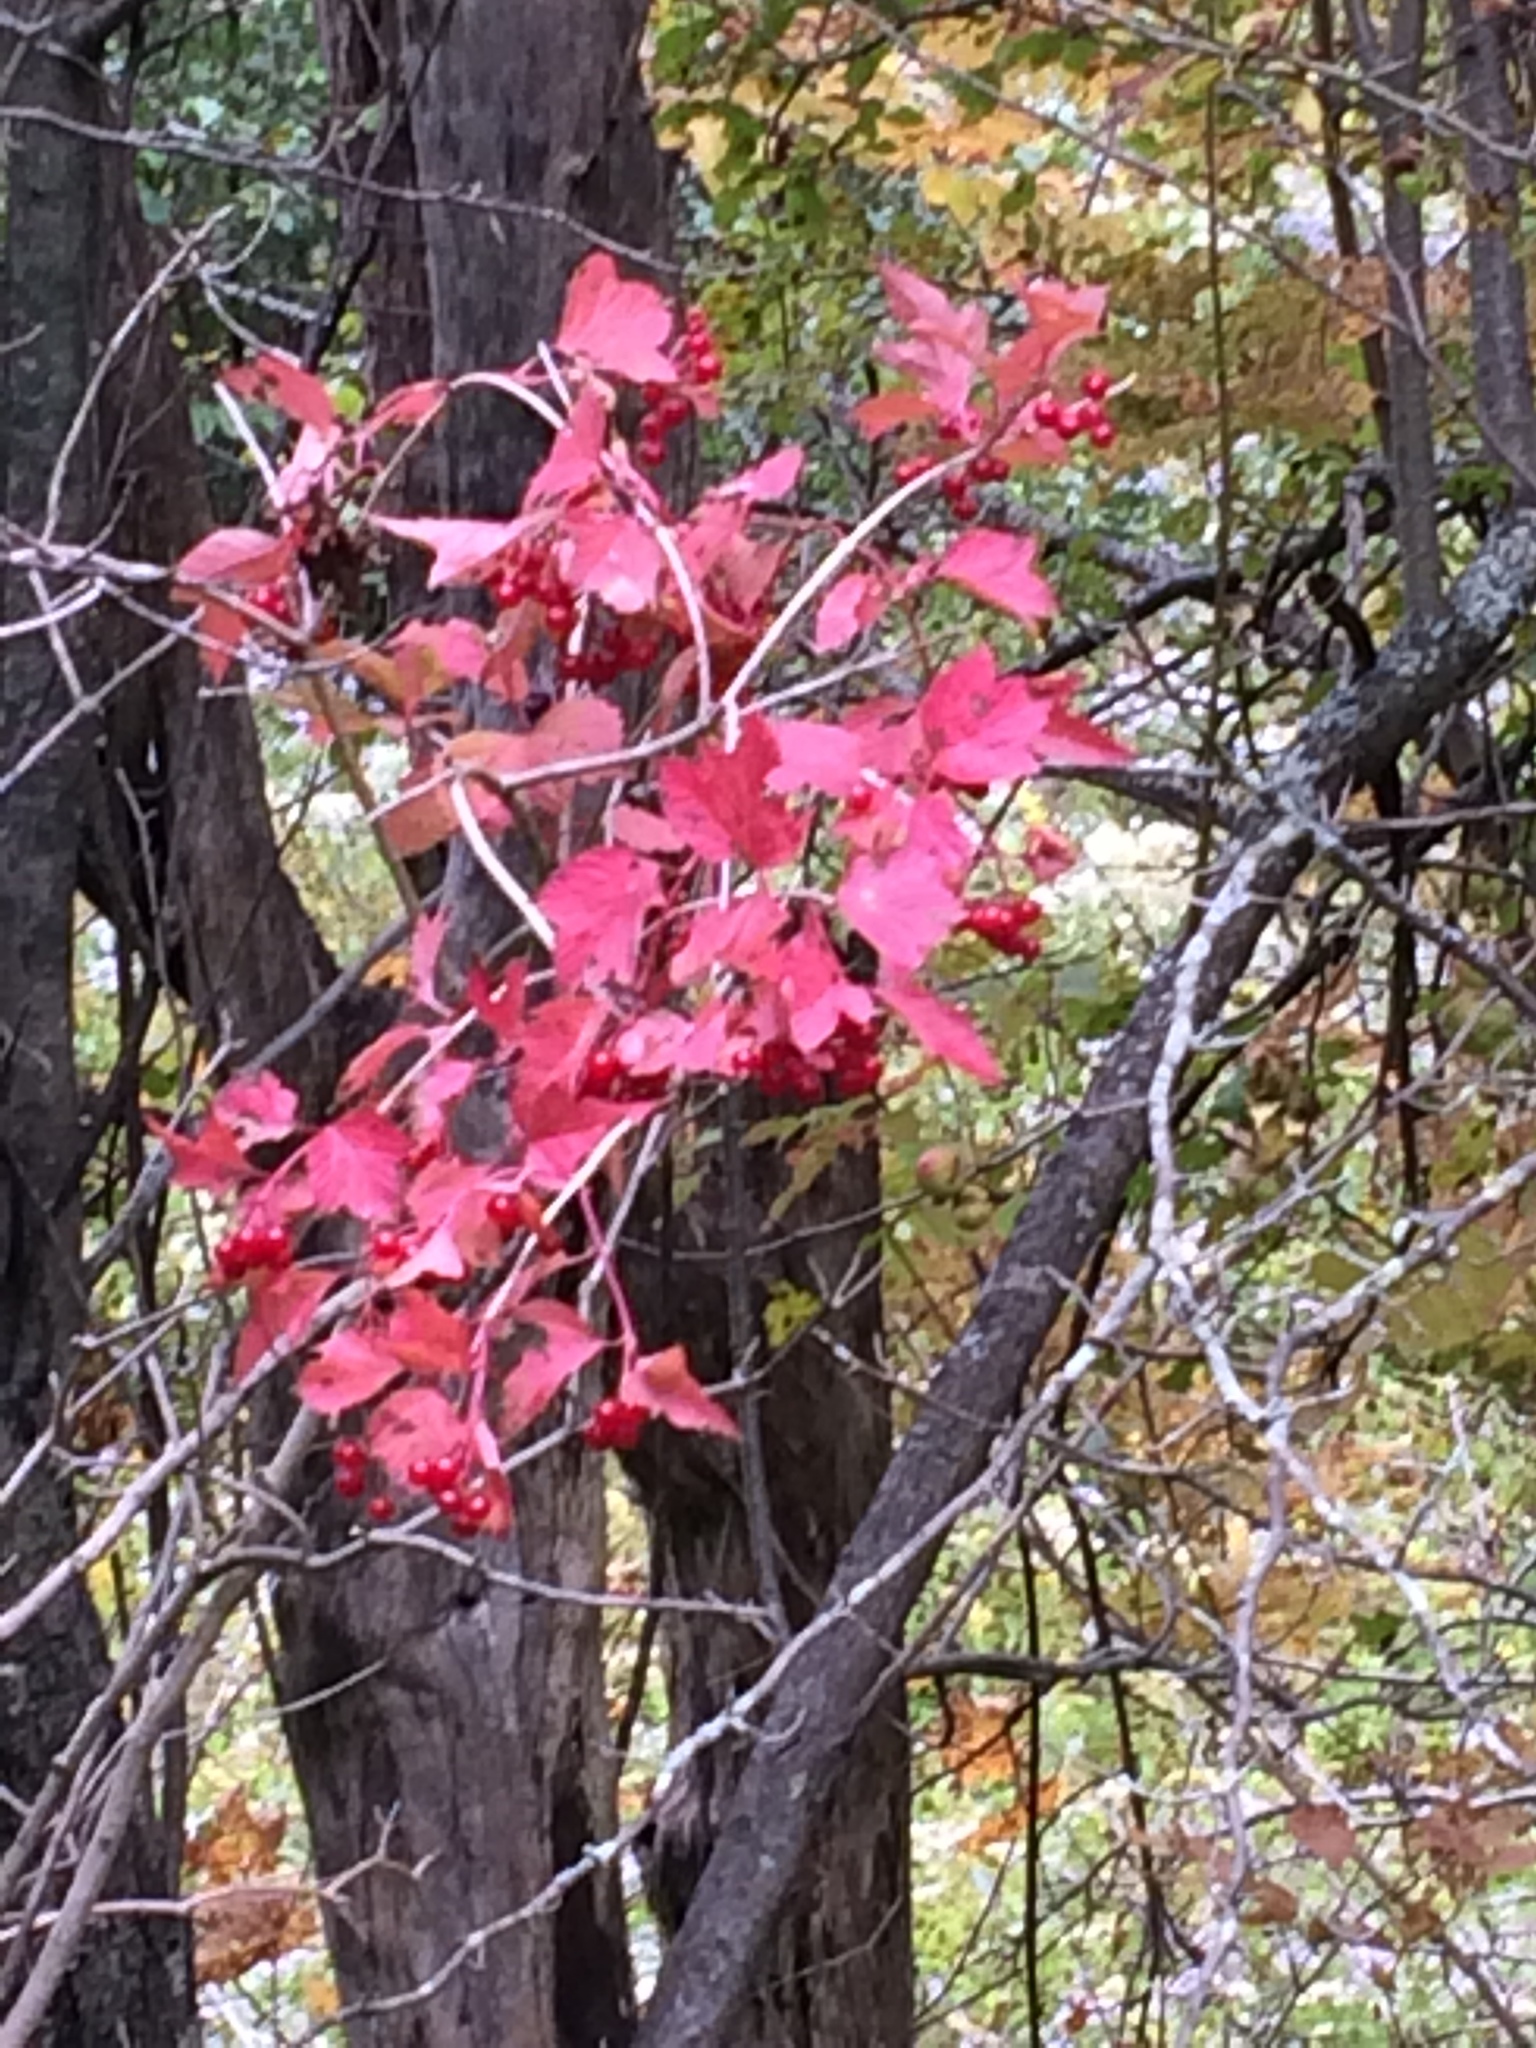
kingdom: Plantae
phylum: Tracheophyta
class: Magnoliopsida
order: Dipsacales
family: Viburnaceae
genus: Viburnum
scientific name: Viburnum opulus
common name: Guelder-rose
